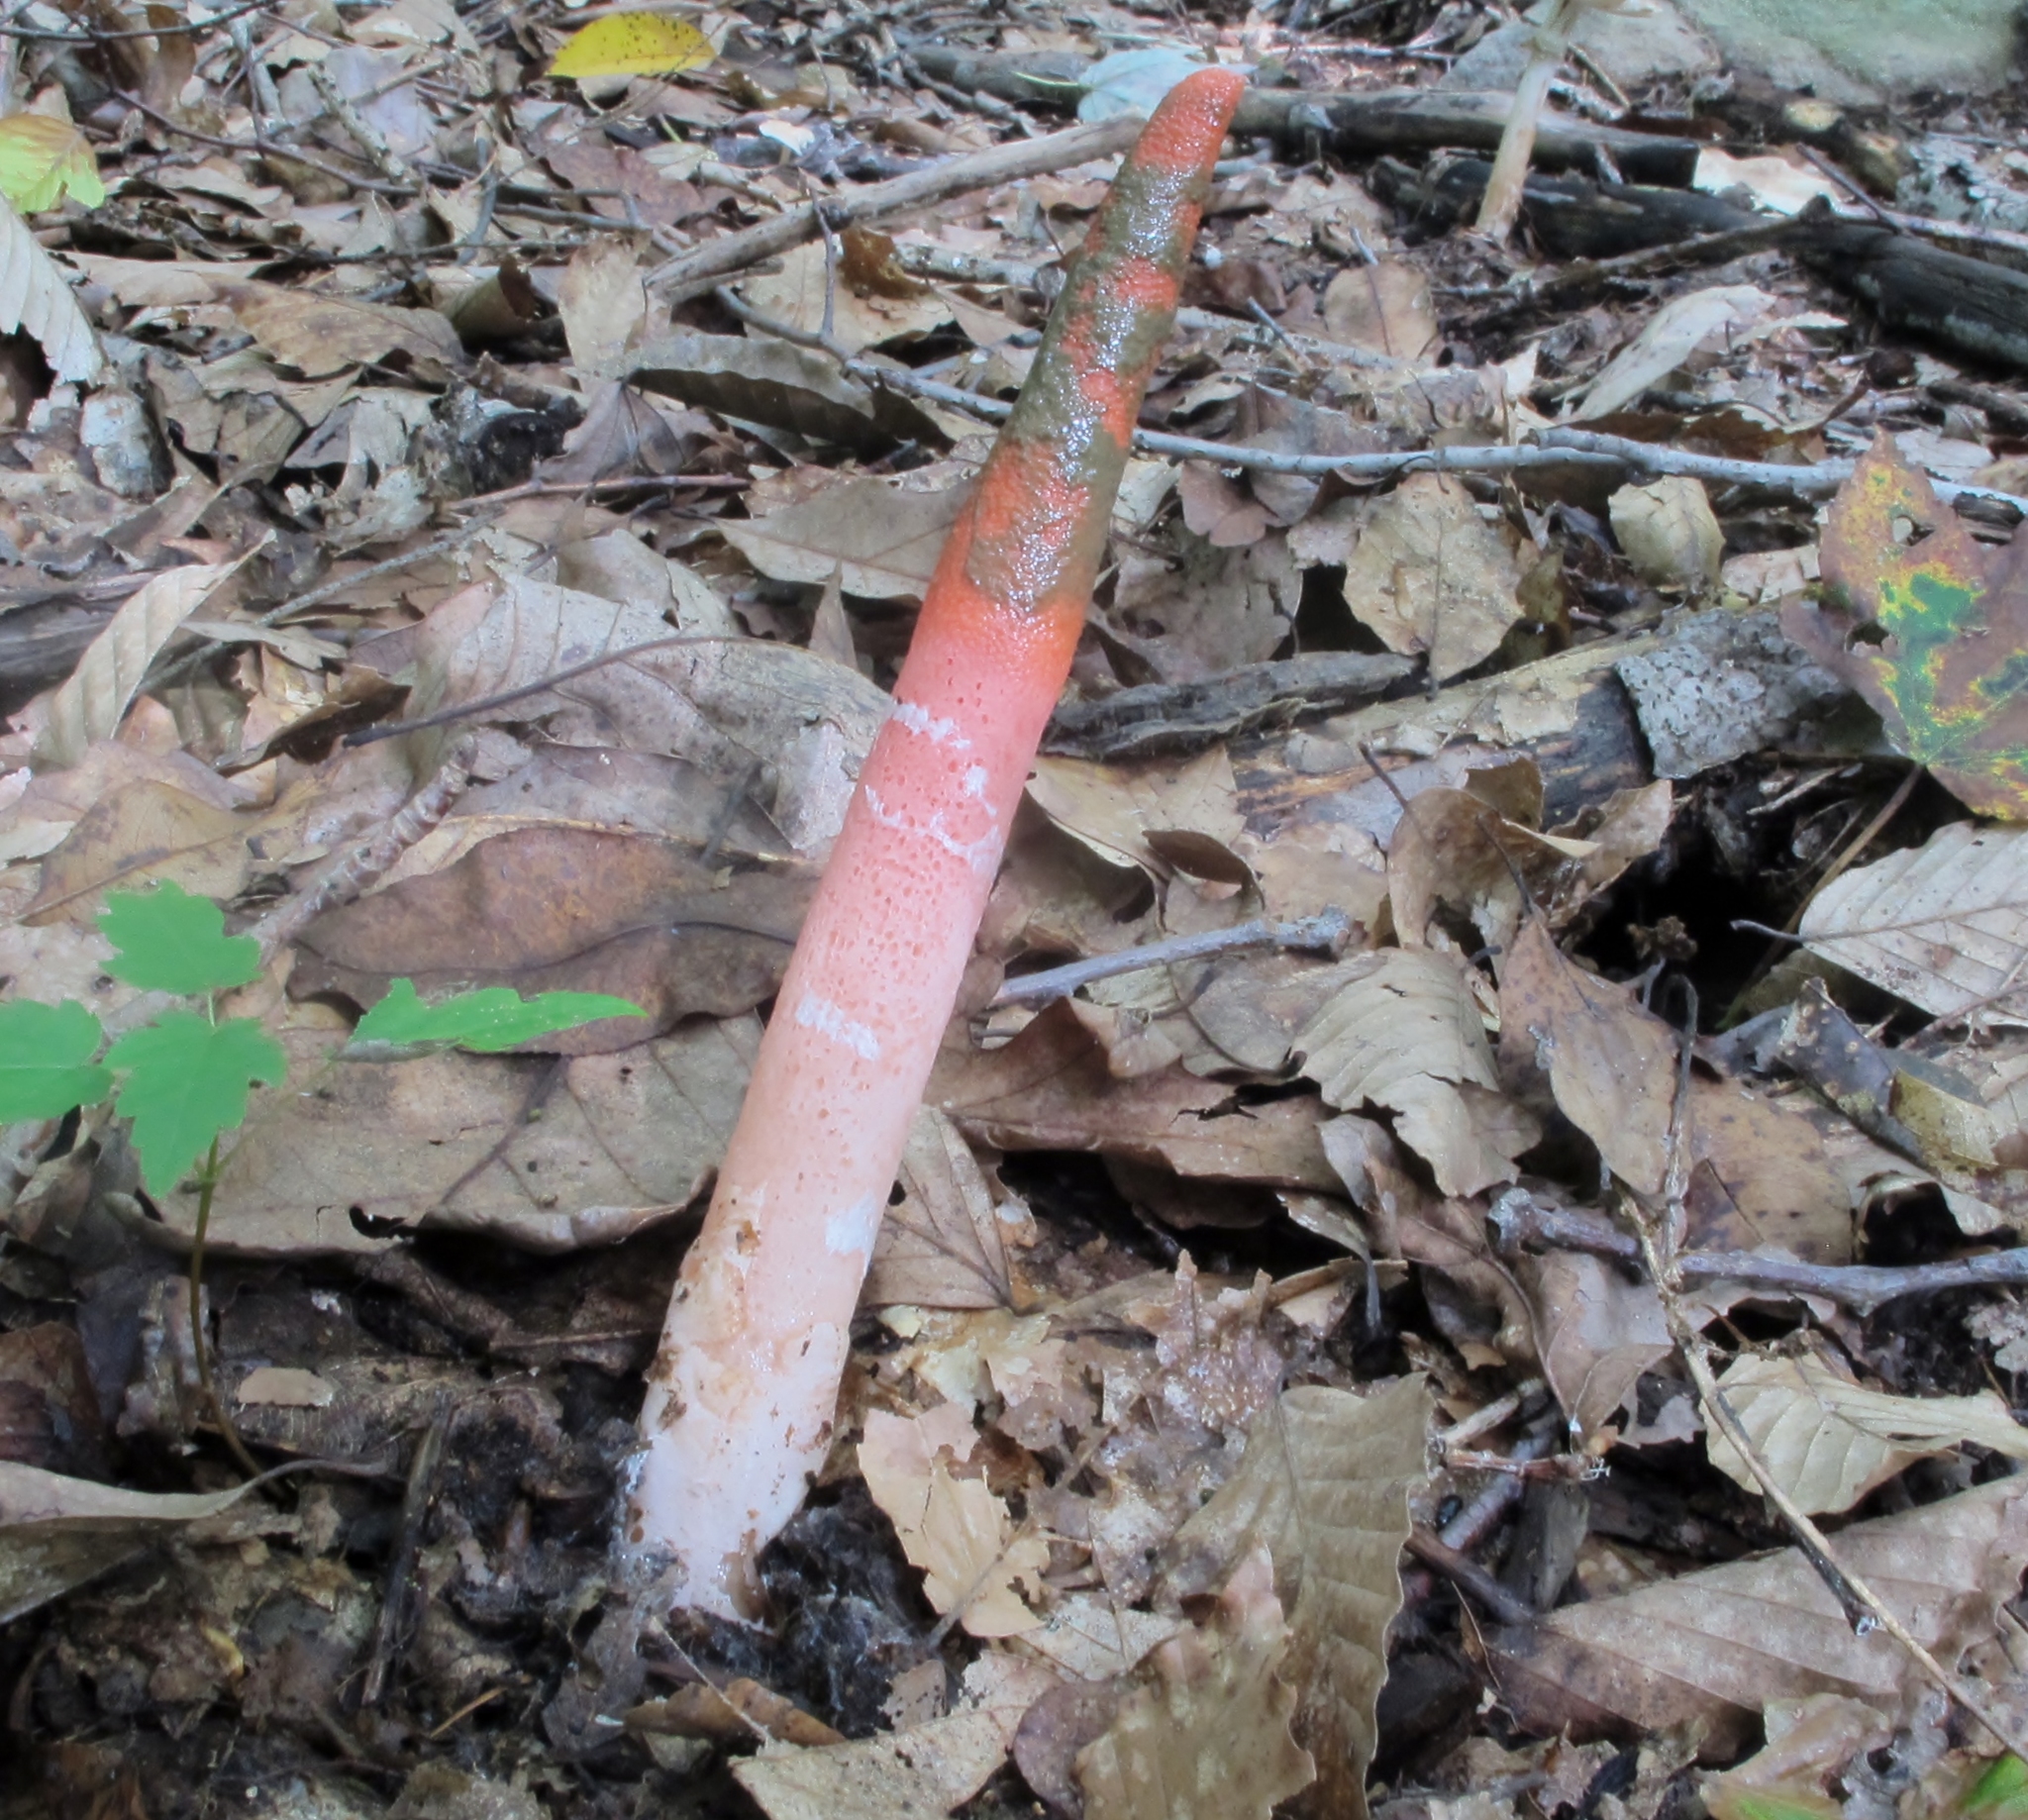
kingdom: Fungi
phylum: Basidiomycota
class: Agaricomycetes
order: Phallales
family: Phallaceae
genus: Mutinus
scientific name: Mutinus elegans
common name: Devil's dipstick
